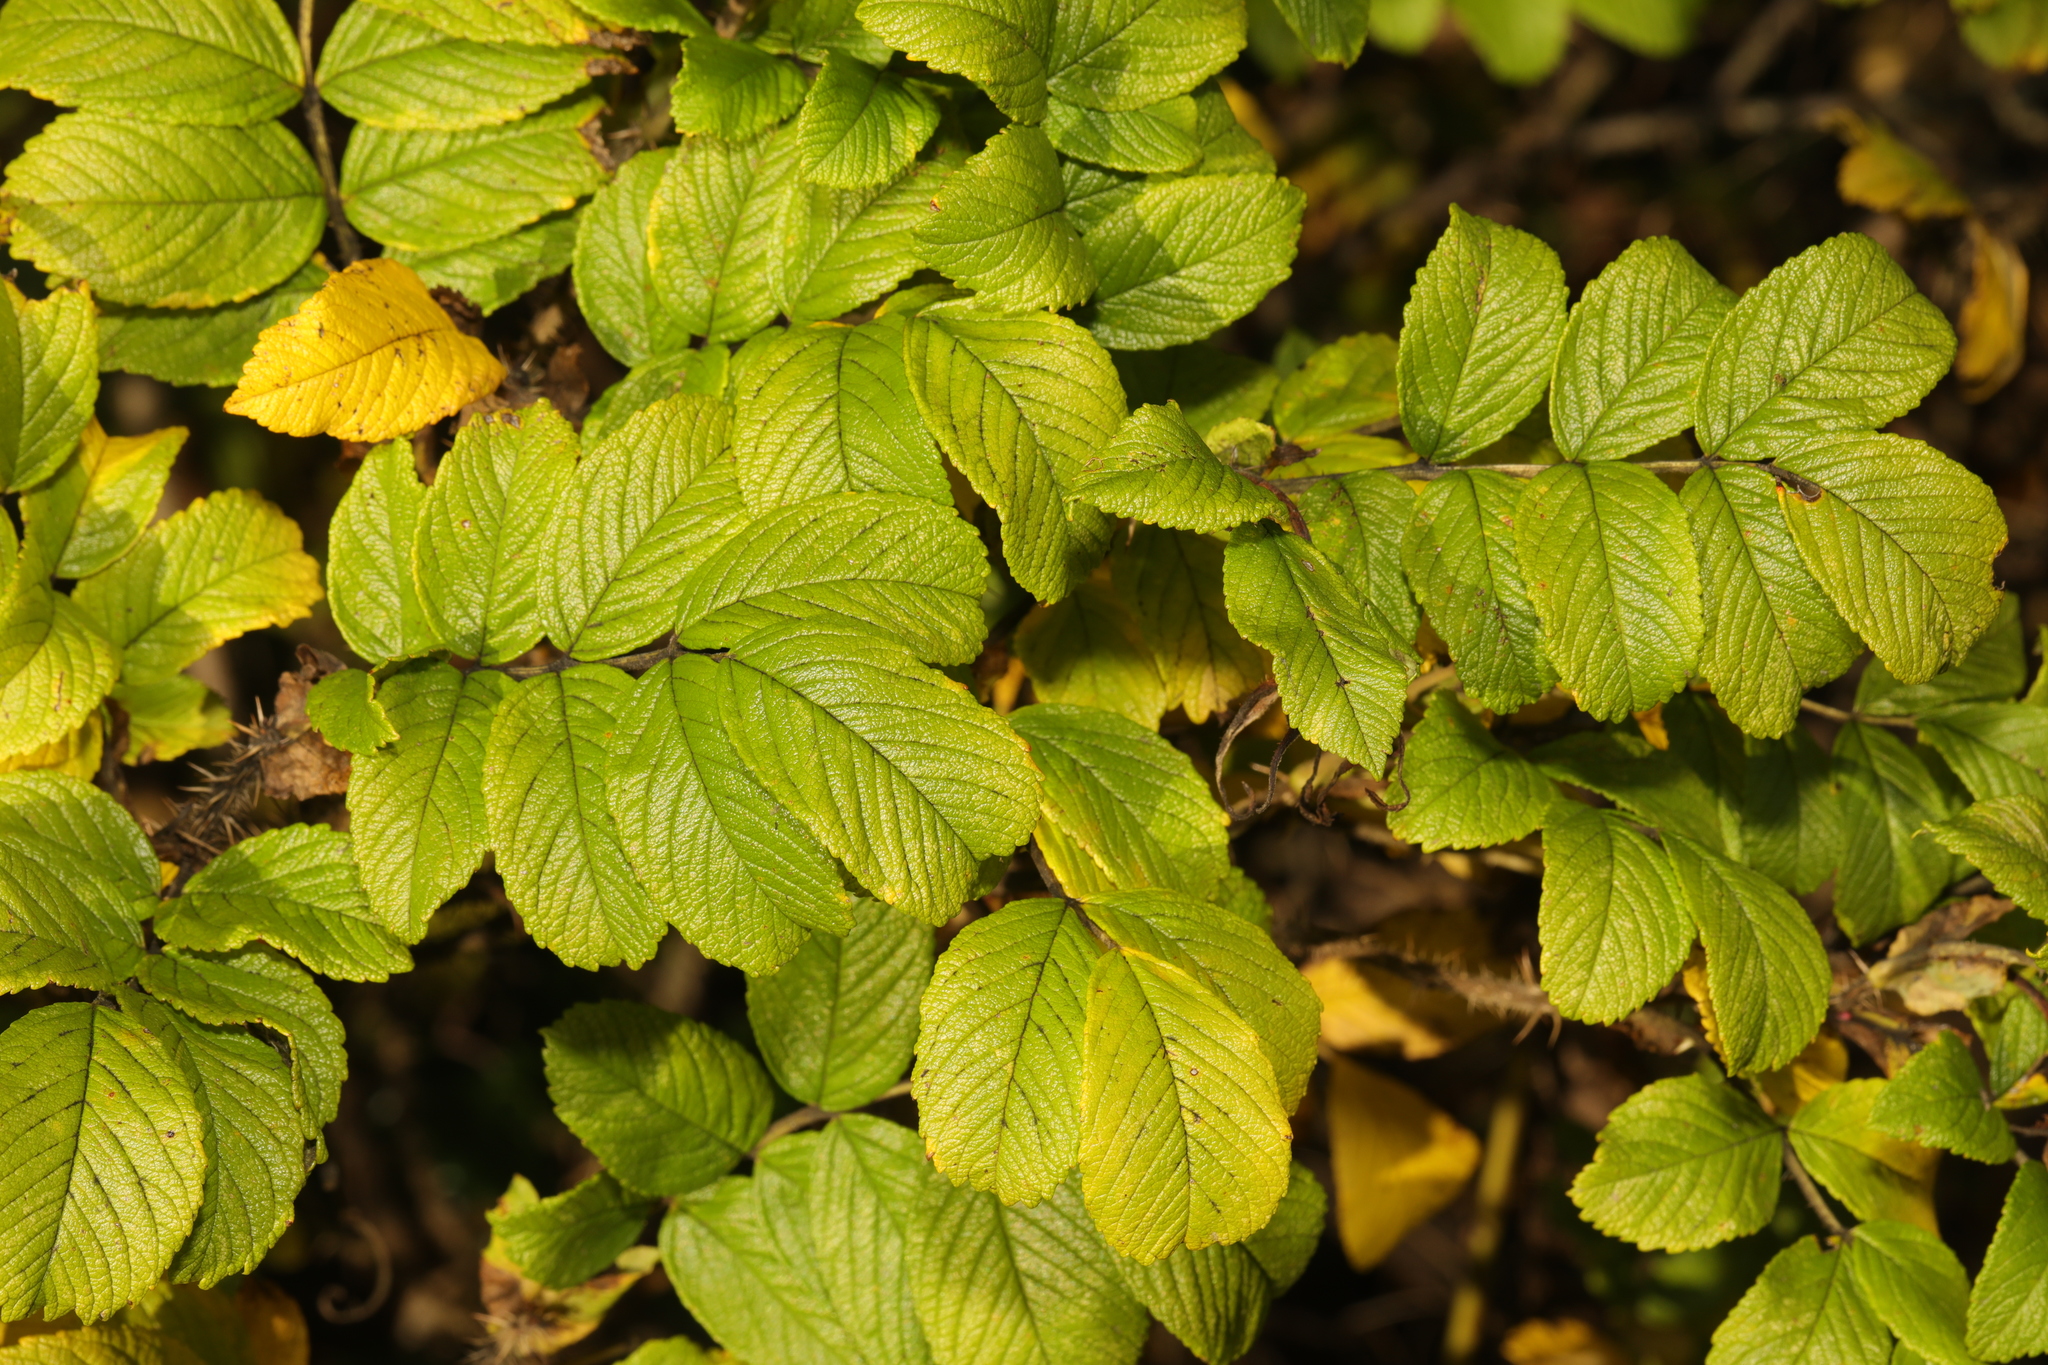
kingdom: Plantae
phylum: Tracheophyta
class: Magnoliopsida
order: Rosales
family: Rosaceae
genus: Rosa
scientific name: Rosa rugosa
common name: Japanese rose
